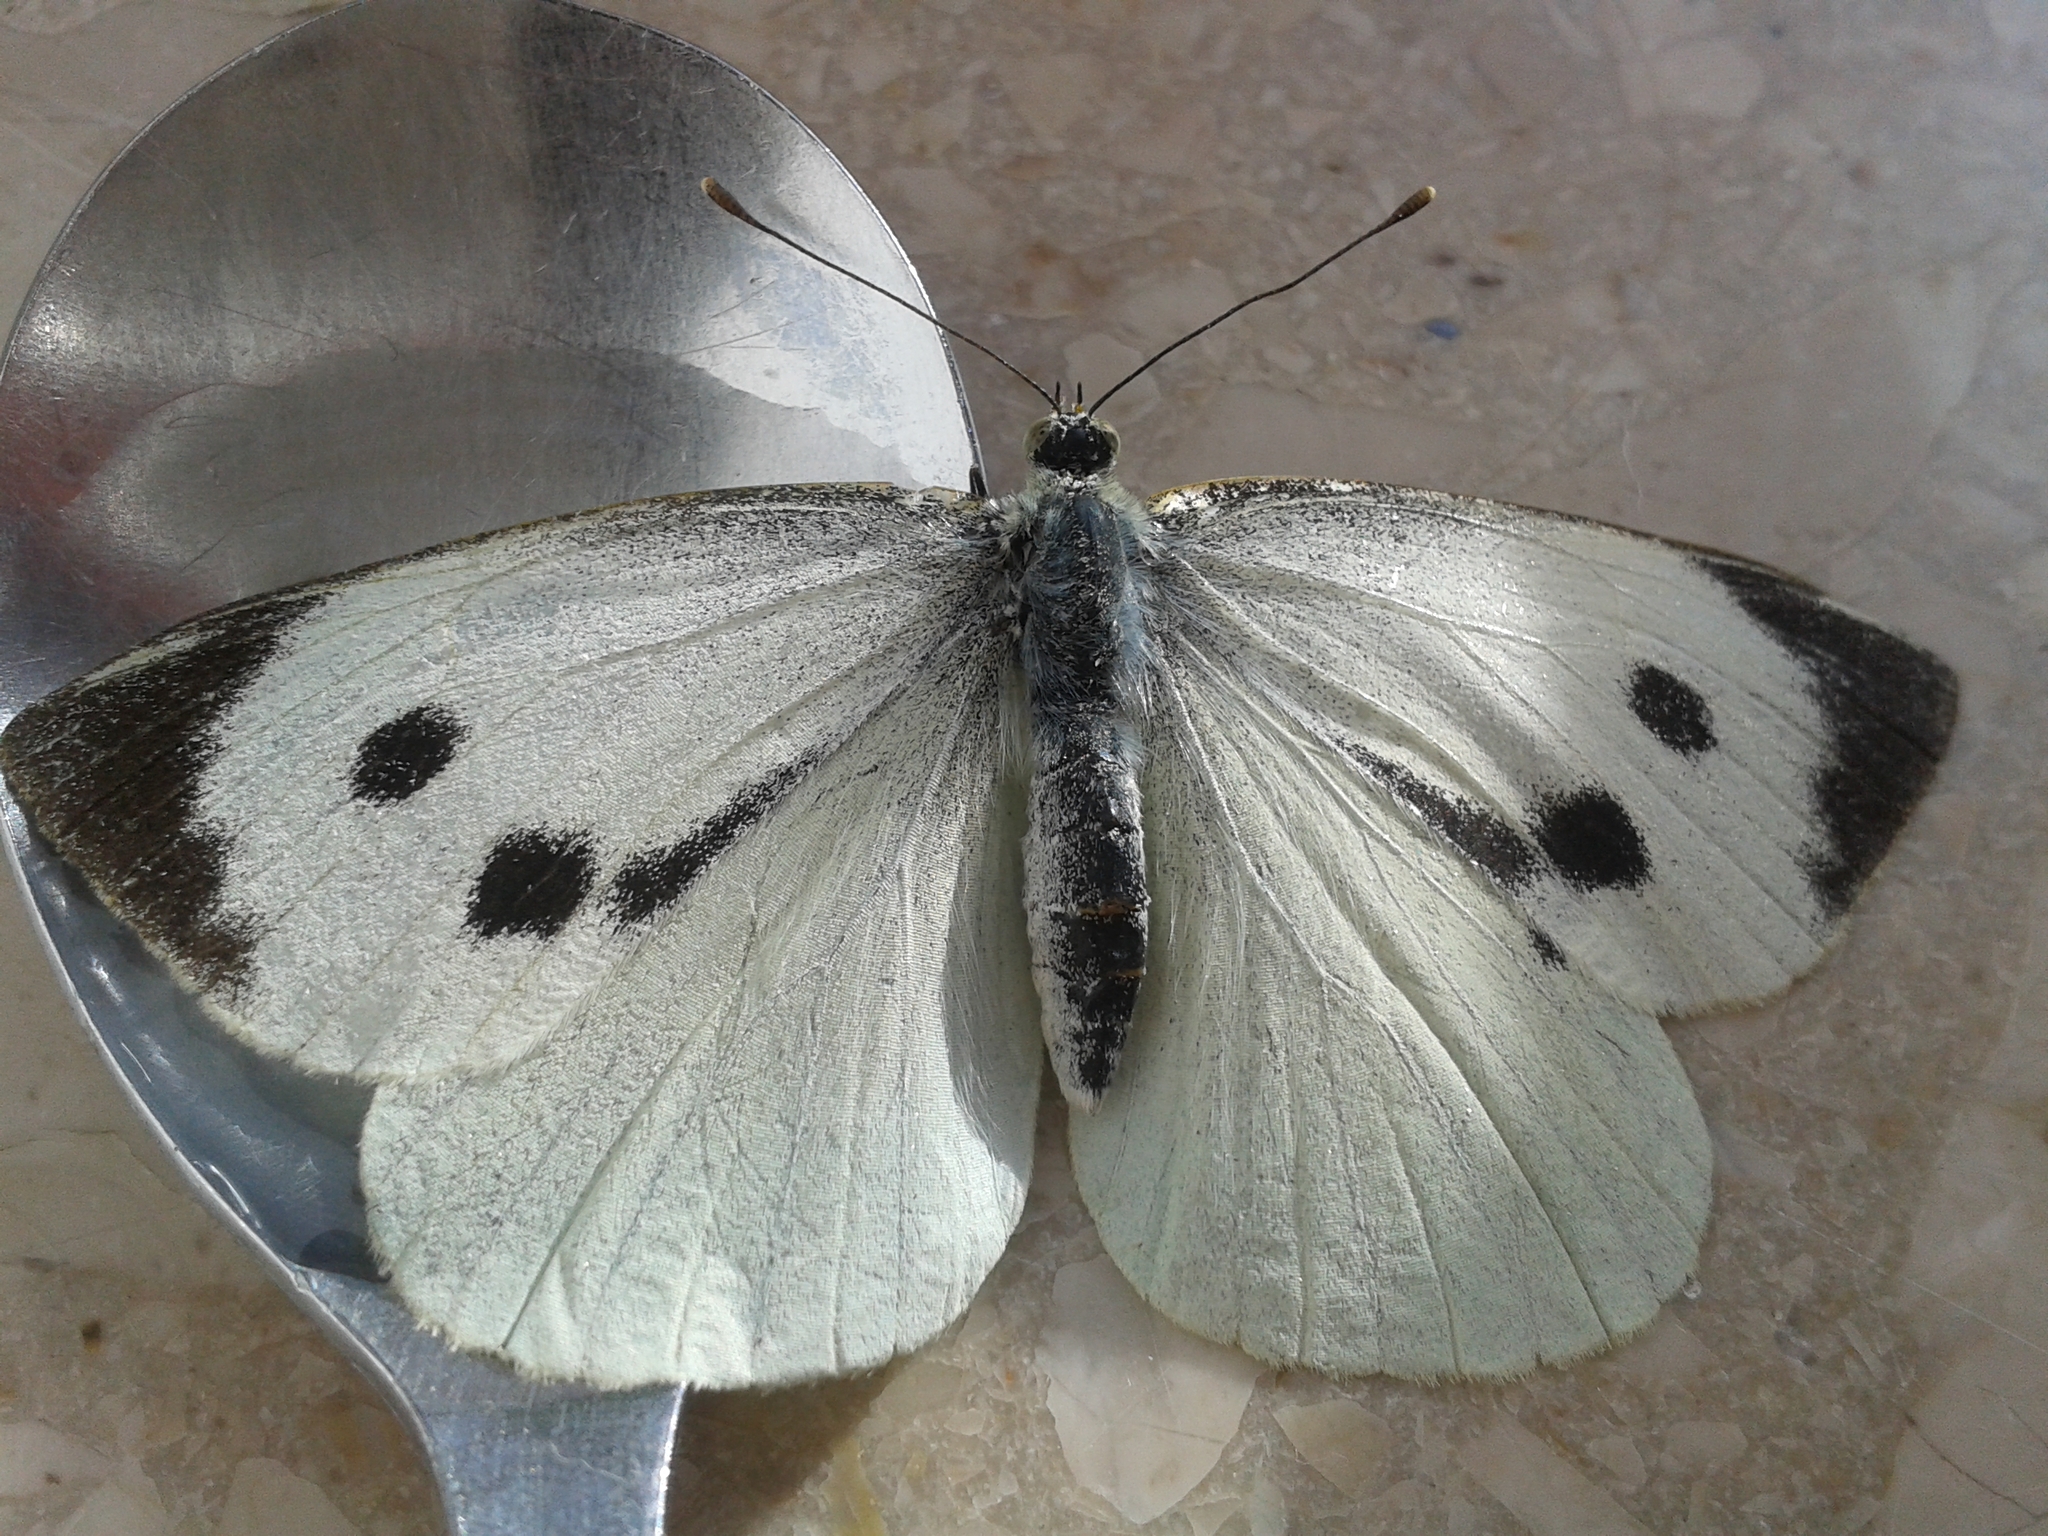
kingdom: Animalia
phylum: Arthropoda
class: Insecta
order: Lepidoptera
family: Pieridae
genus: Pieris
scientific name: Pieris brassicae
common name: Large white
